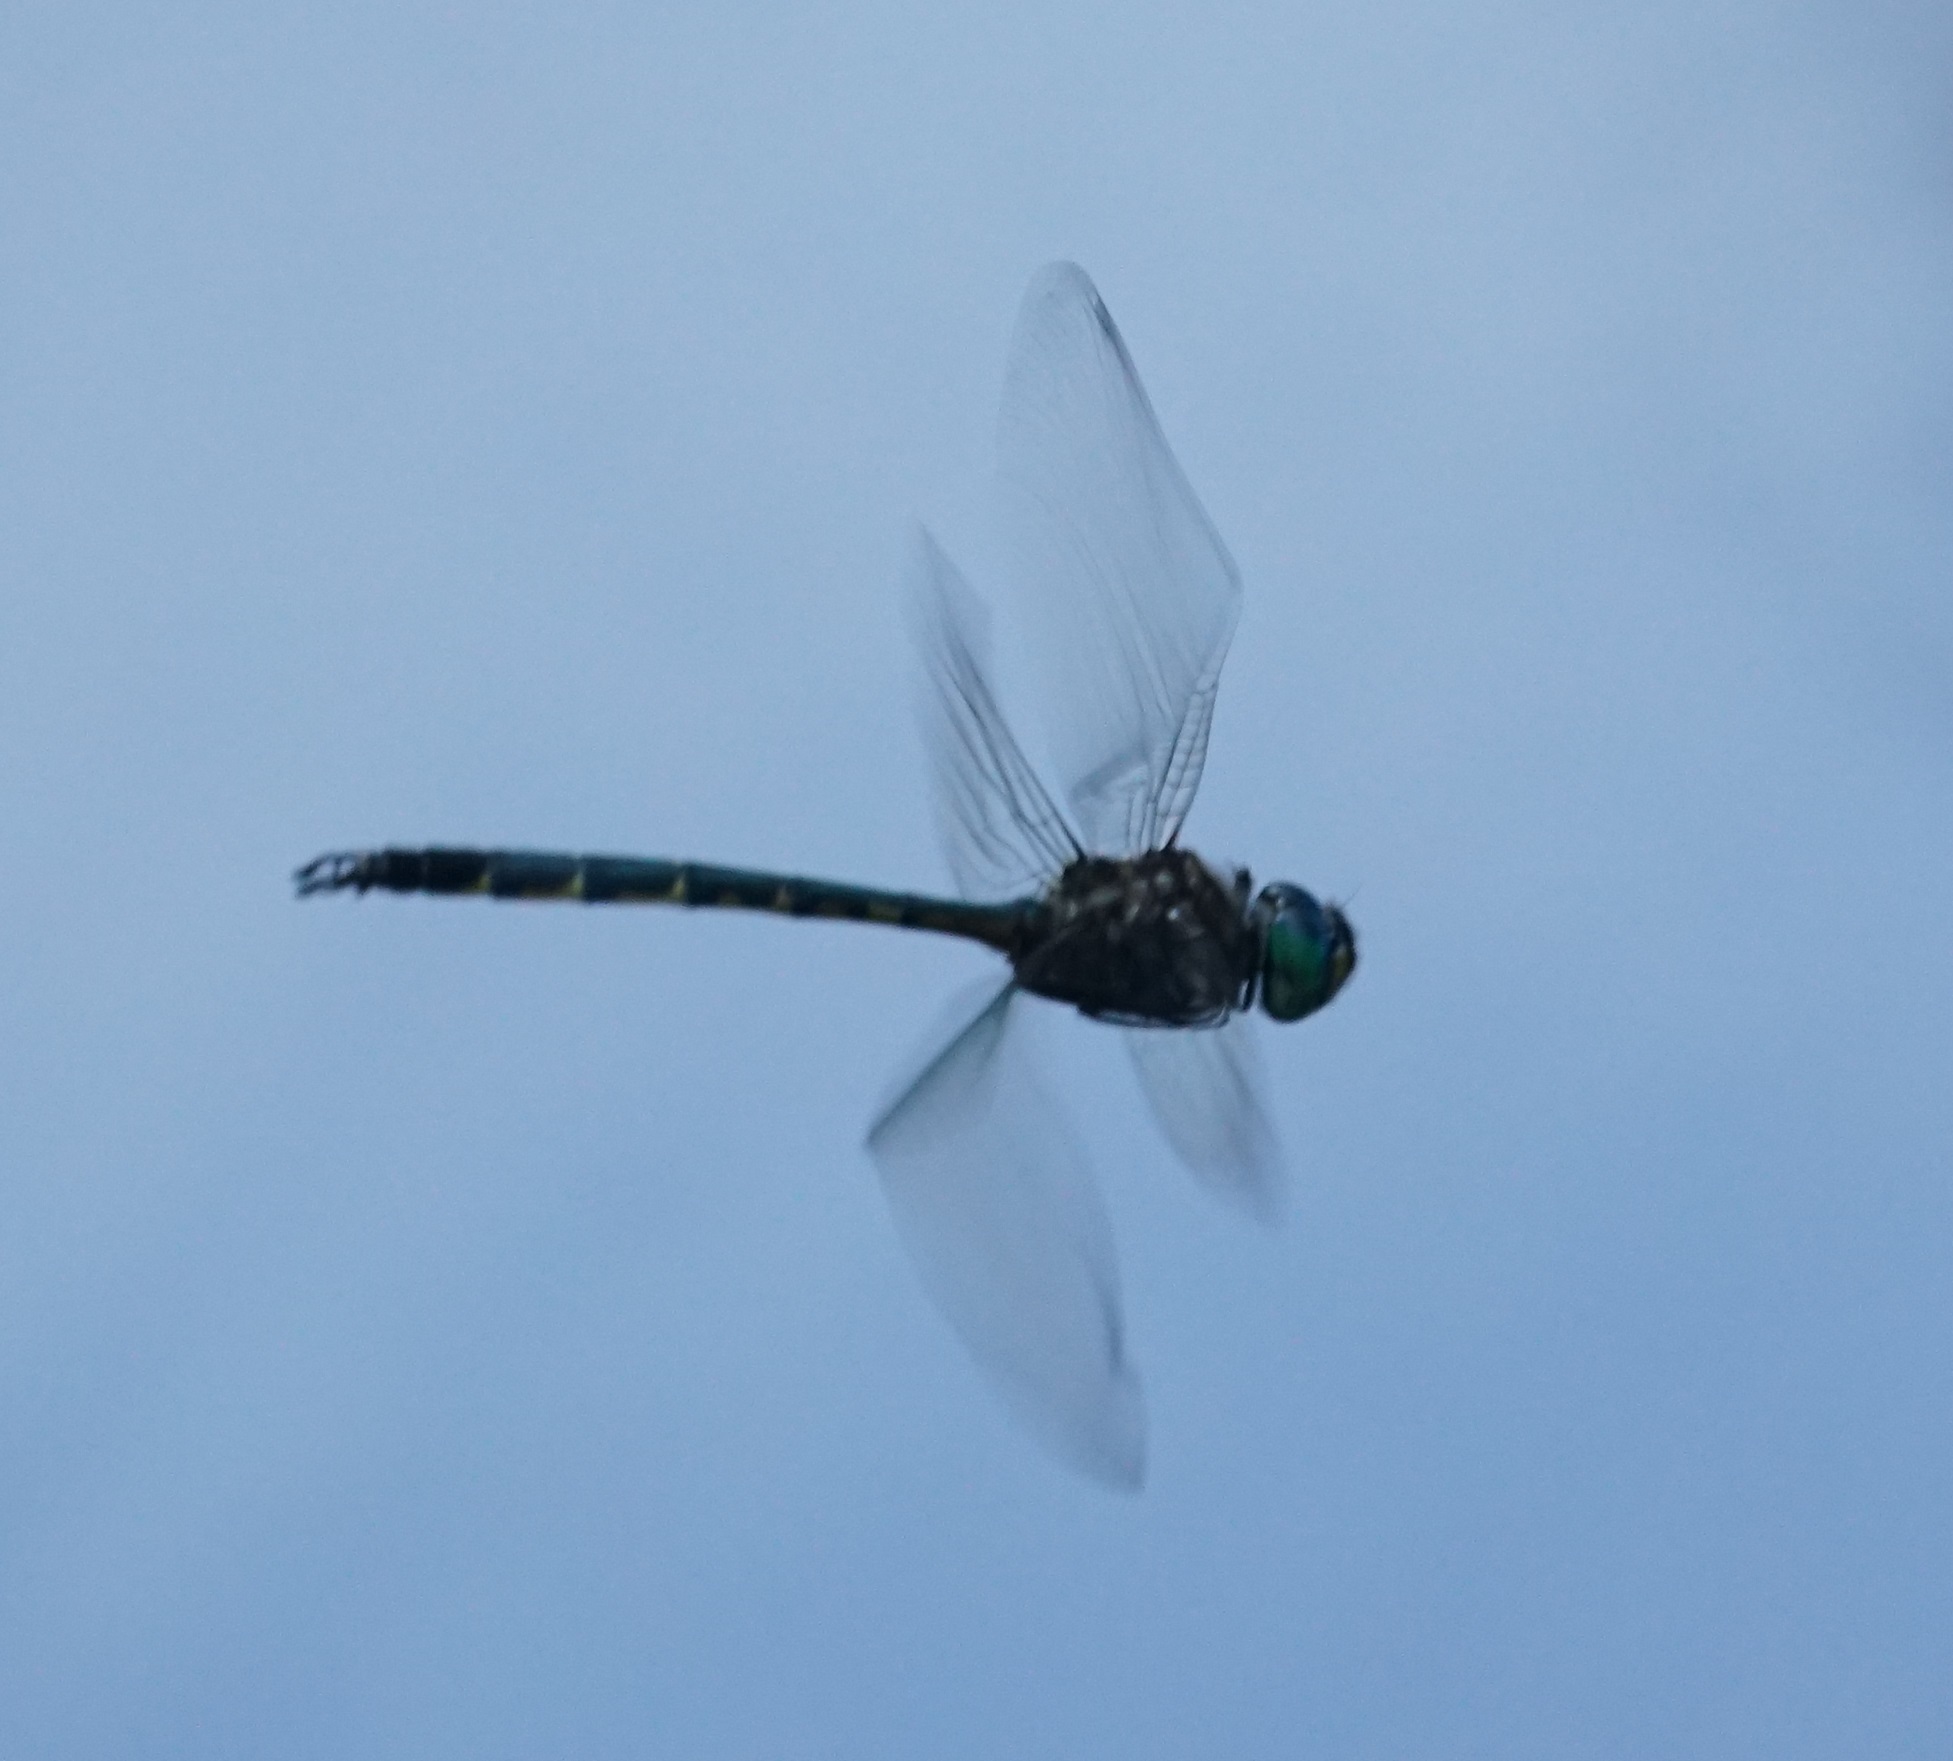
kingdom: Animalia
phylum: Arthropoda
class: Insecta
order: Odonata
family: Corduliidae
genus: Hemicordulia
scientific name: Hemicordulia australiae
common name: Sentry dragonfly
